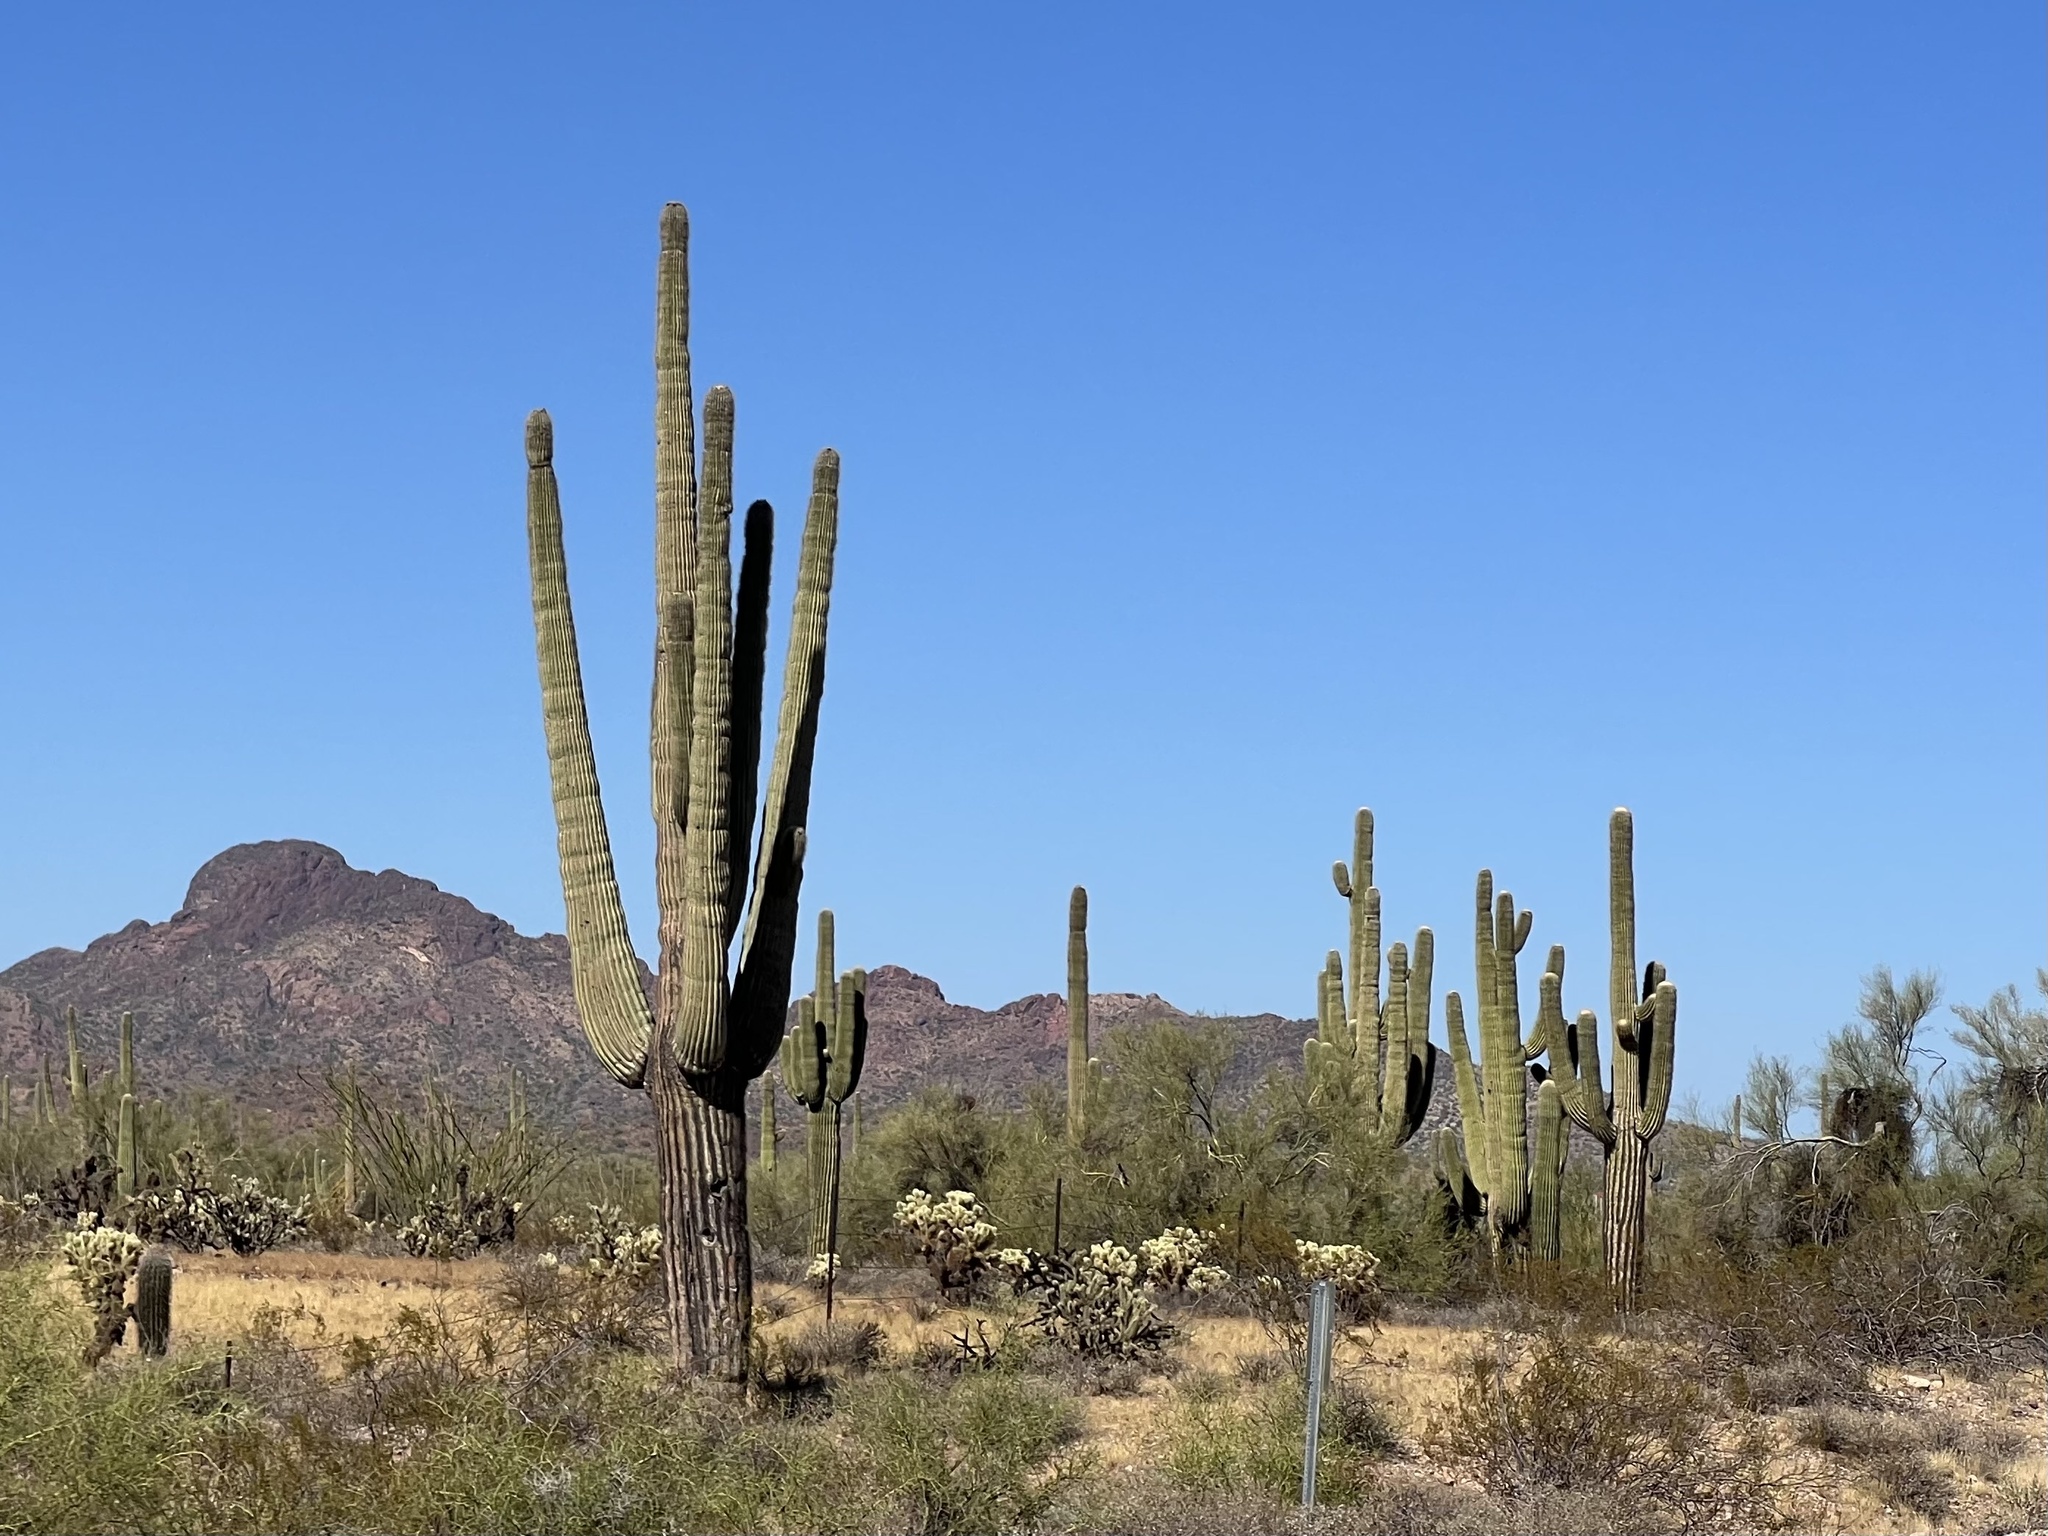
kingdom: Plantae
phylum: Tracheophyta
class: Magnoliopsida
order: Caryophyllales
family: Cactaceae
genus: Carnegiea
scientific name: Carnegiea gigantea
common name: Saguaro
